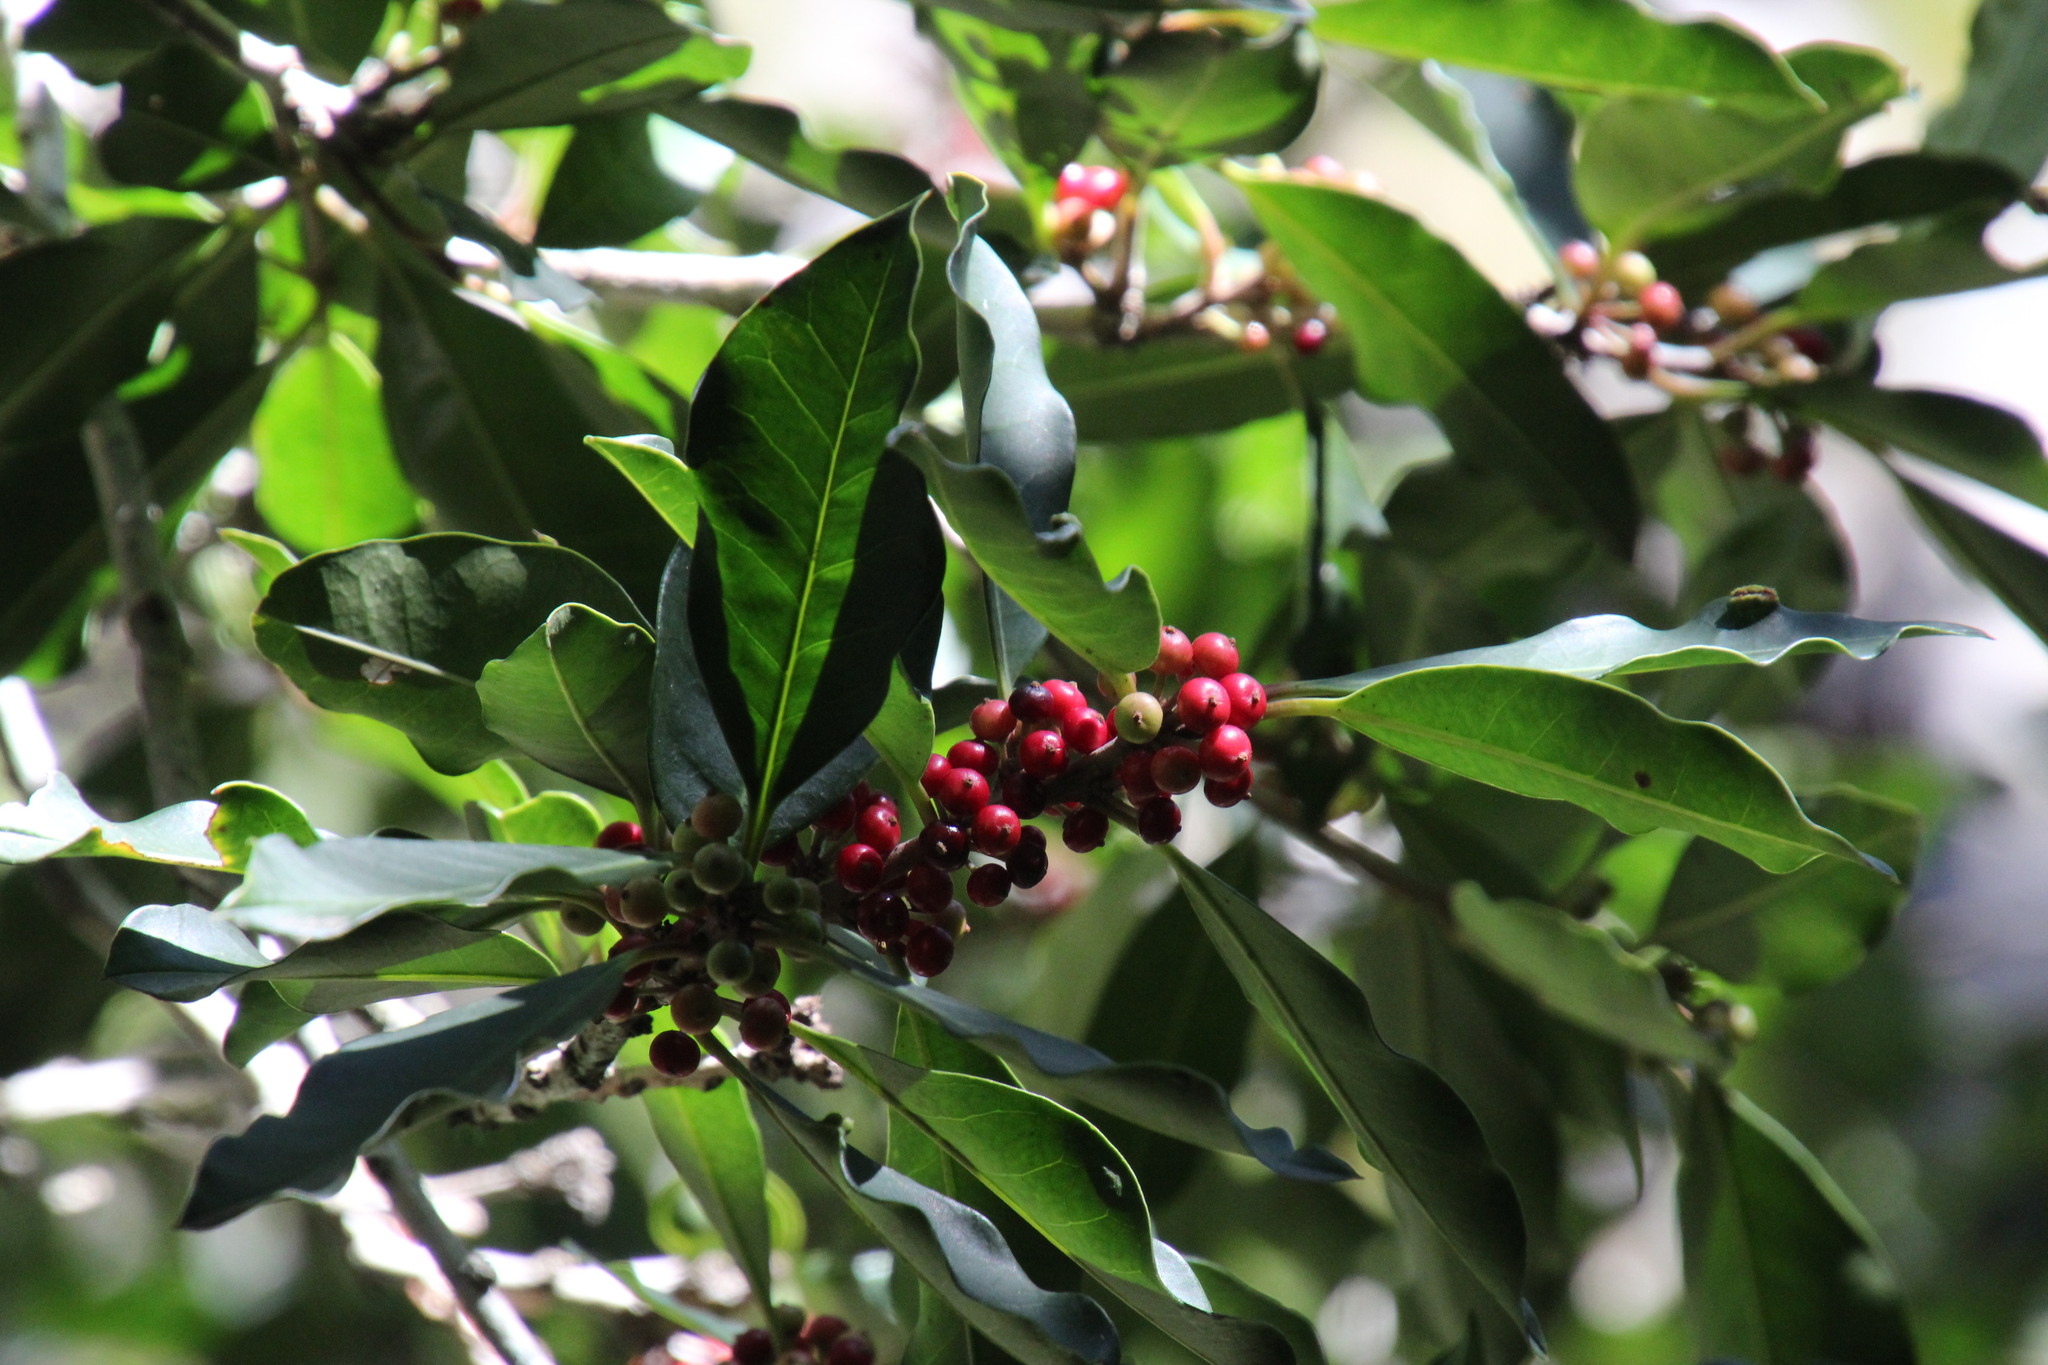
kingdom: Plantae
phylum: Tracheophyta
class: Magnoliopsida
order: Aquifoliales
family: Aquifoliaceae
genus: Ilex
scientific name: Ilex mitis
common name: African holly
